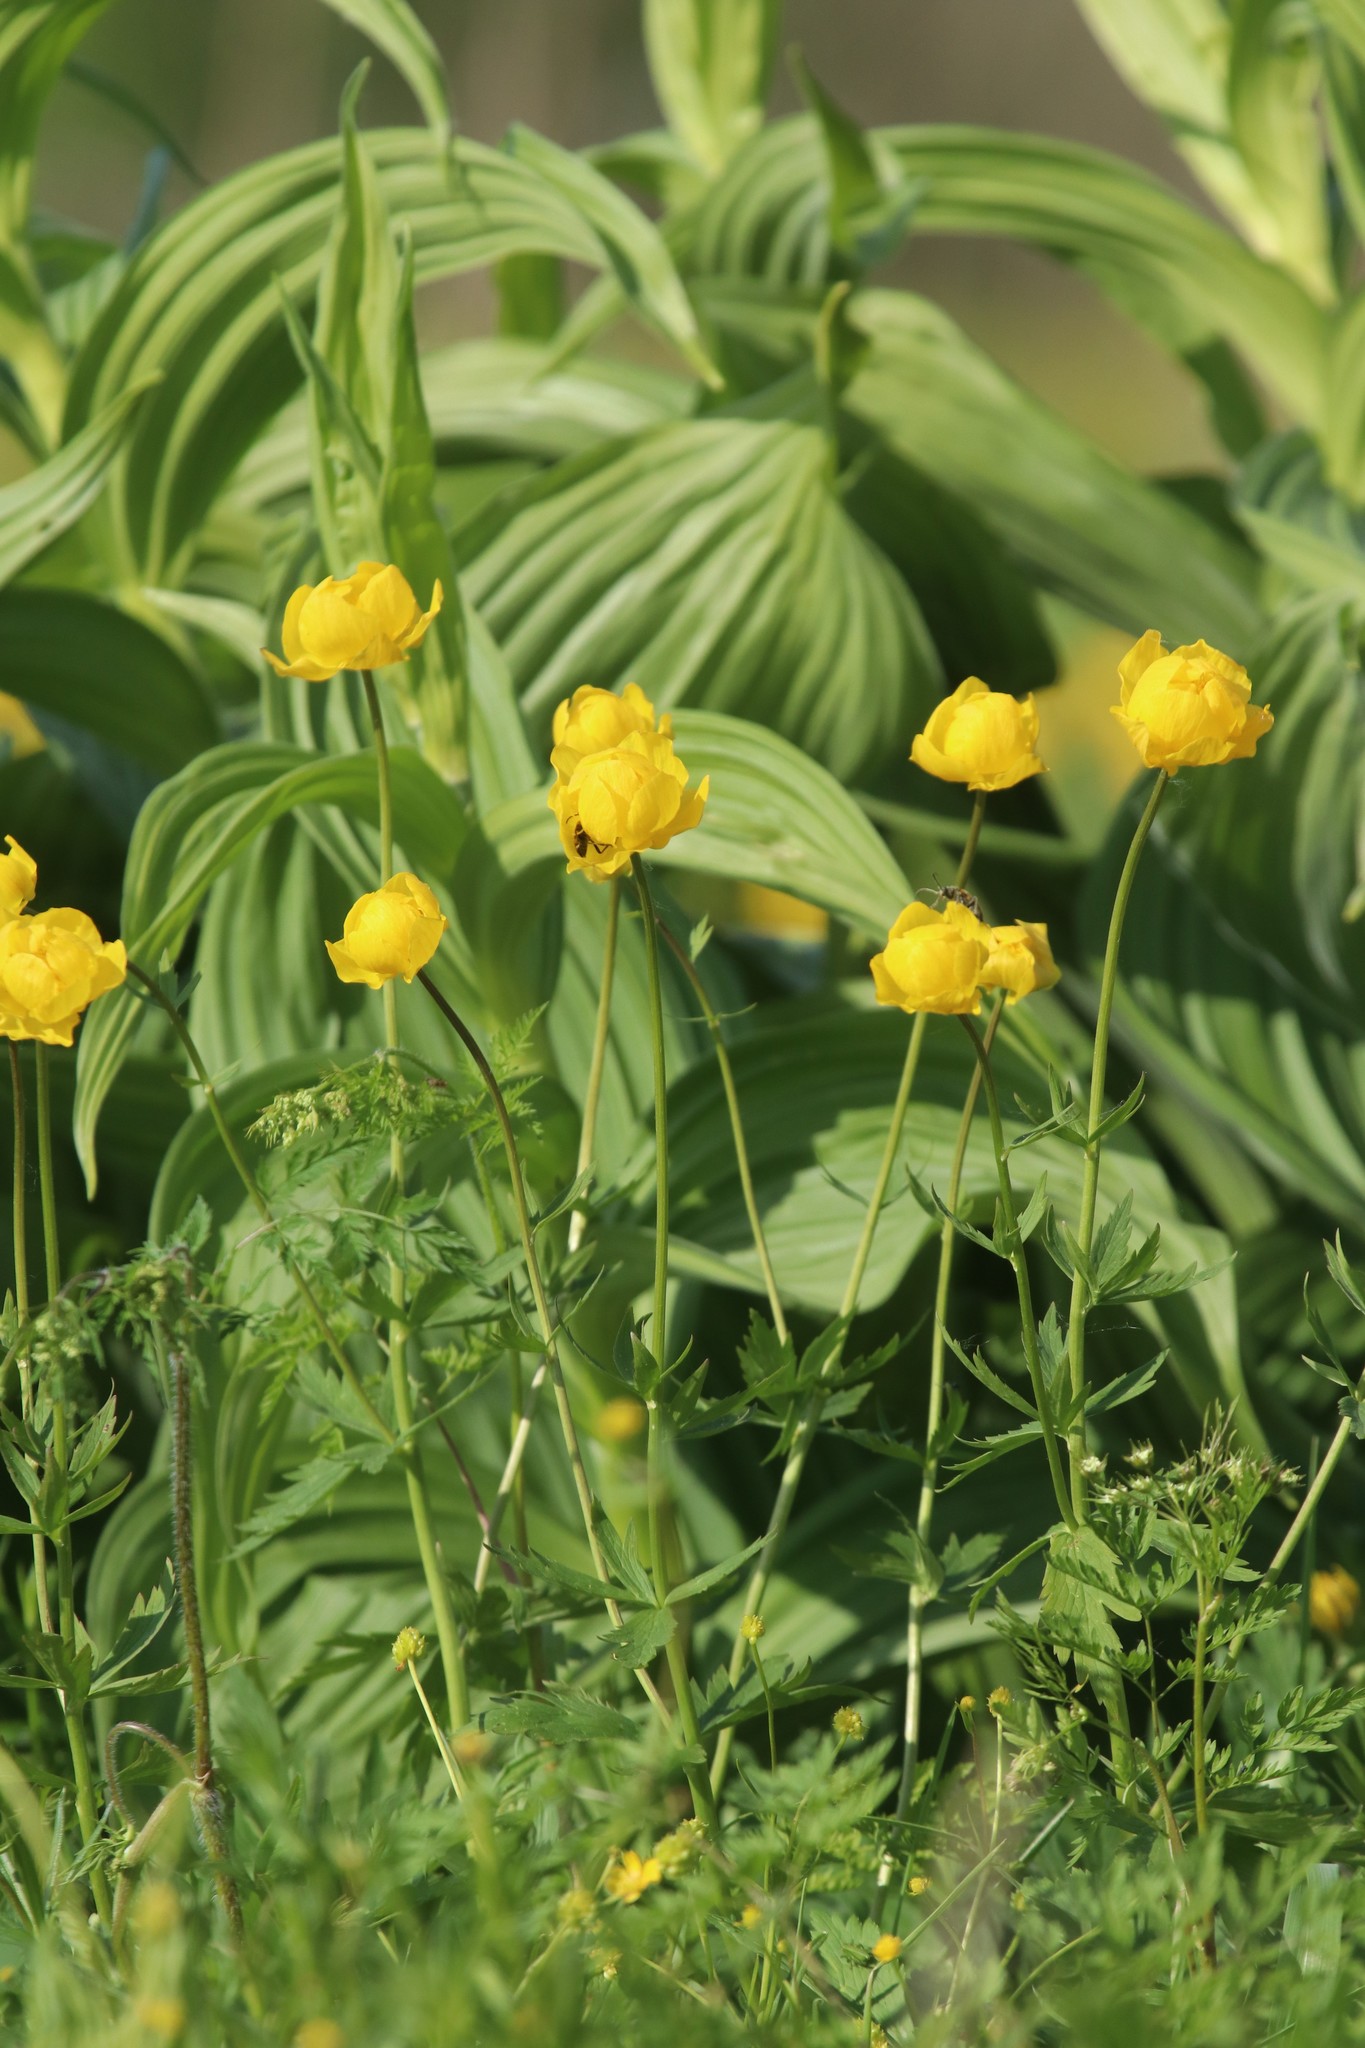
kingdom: Plantae
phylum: Tracheophyta
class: Magnoliopsida
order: Ranunculales
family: Ranunculaceae
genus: Trollius
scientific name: Trollius europaeus
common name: European globeflower
